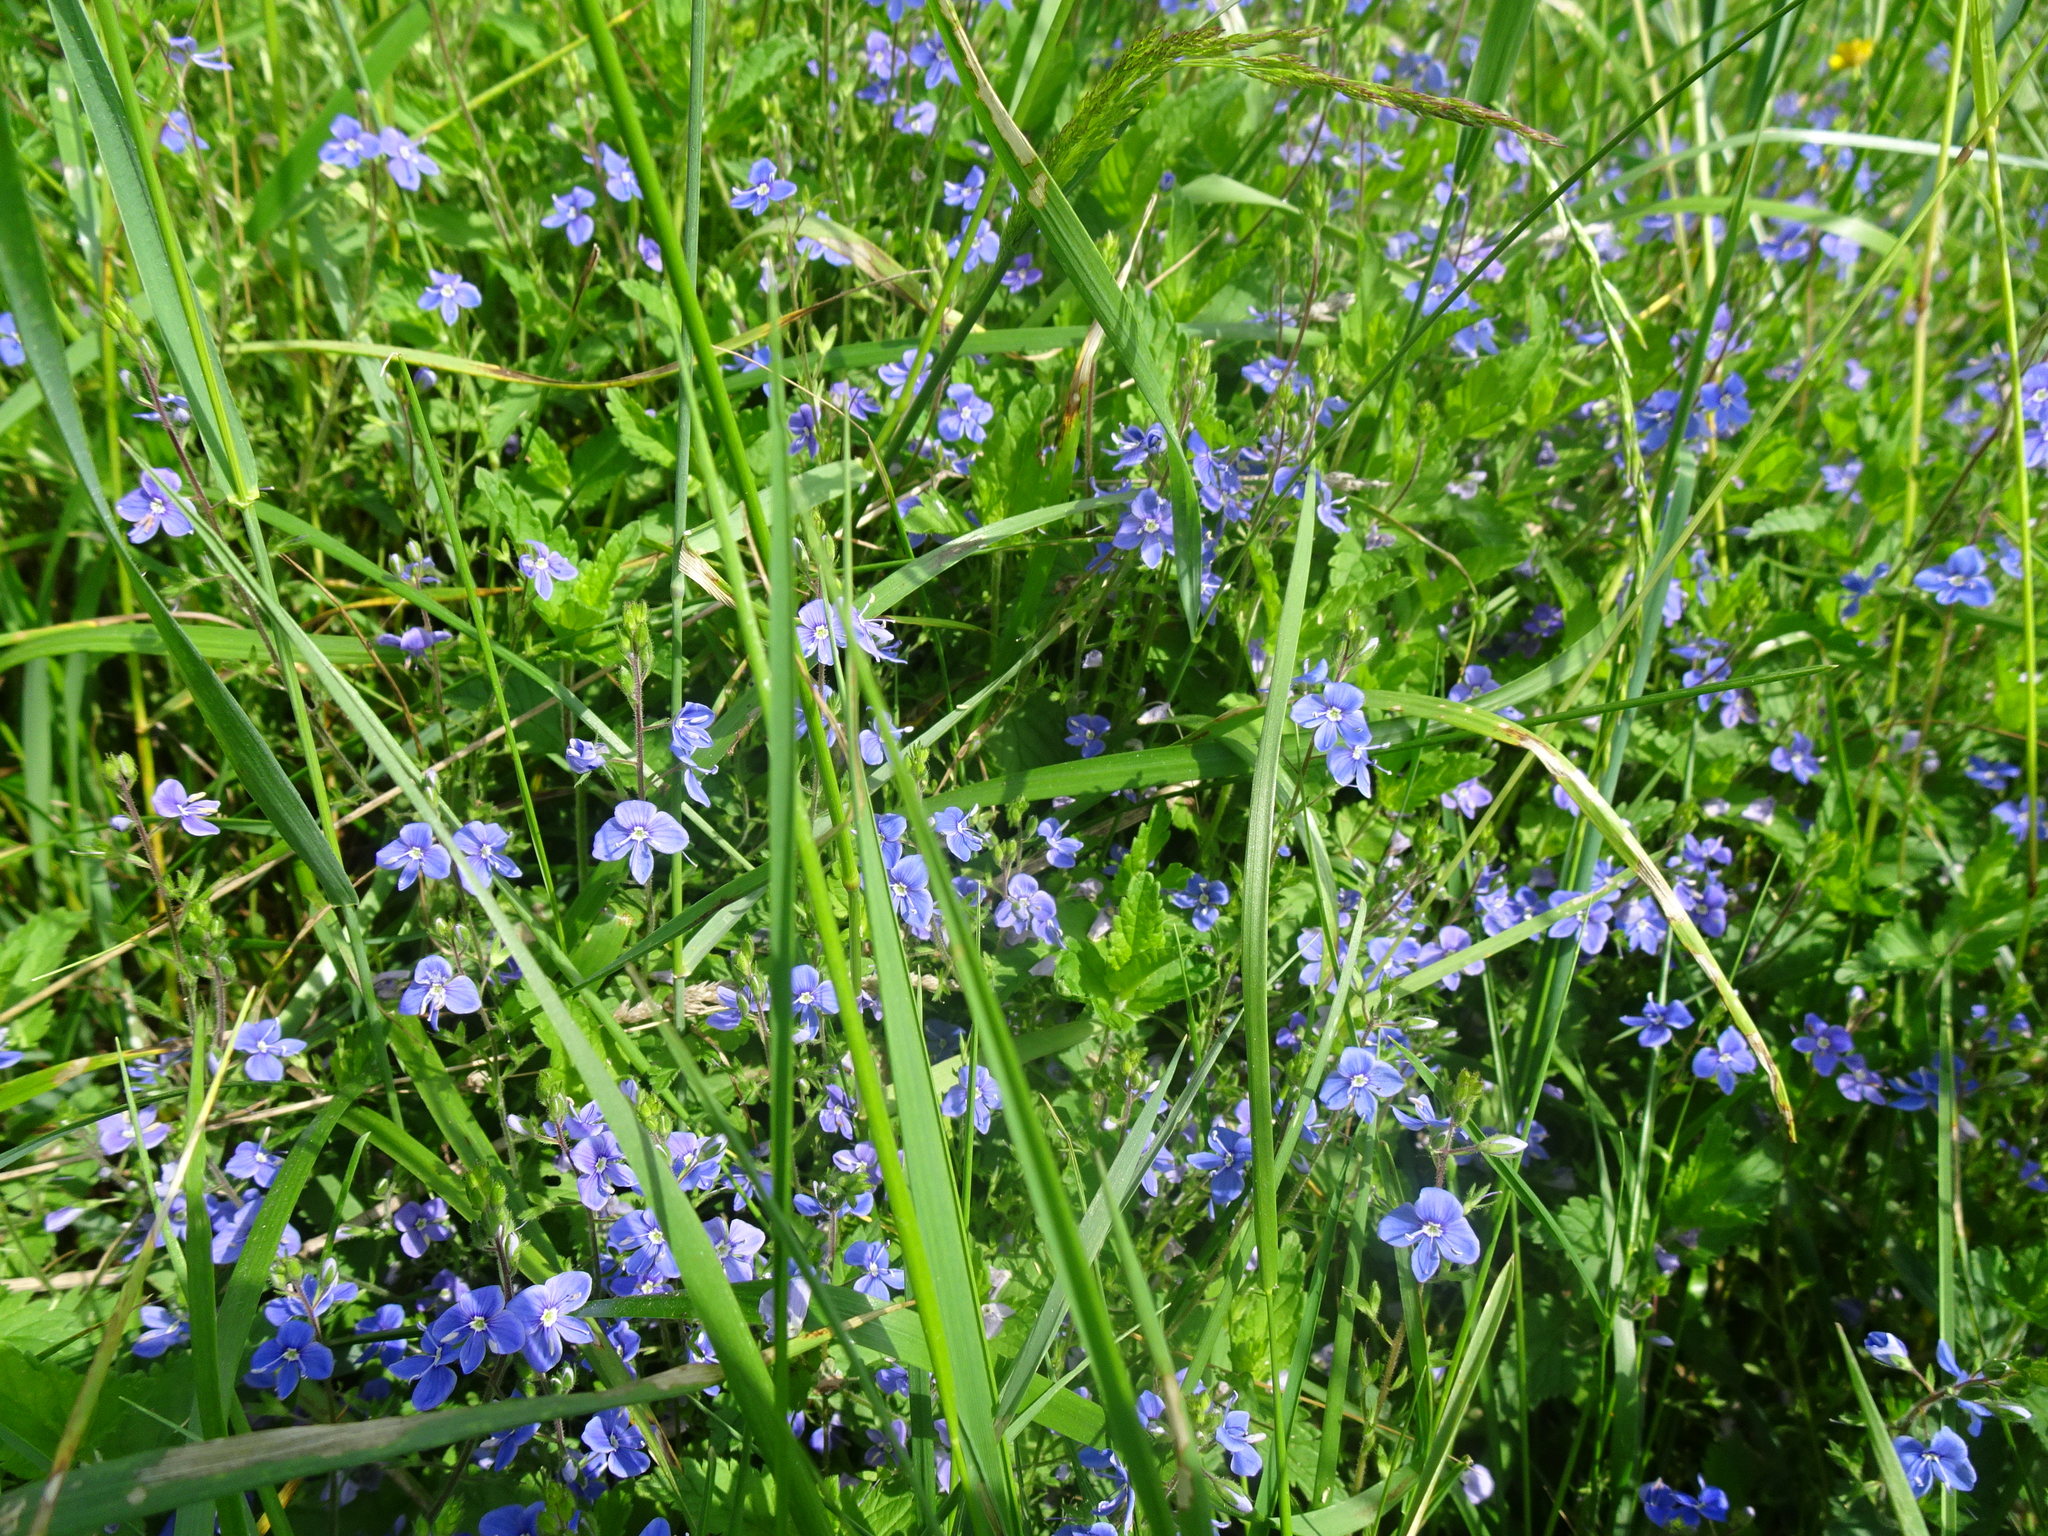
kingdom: Plantae
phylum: Tracheophyta
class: Magnoliopsida
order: Lamiales
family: Plantaginaceae
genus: Veronica
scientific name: Veronica chamaedrys
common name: Germander speedwell
